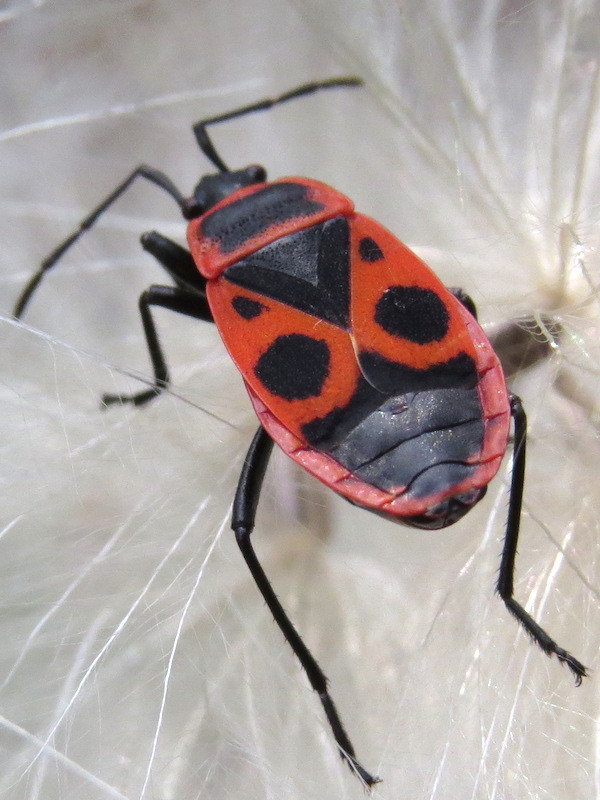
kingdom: Animalia
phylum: Arthropoda
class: Insecta
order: Hemiptera
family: Pyrrhocoridae
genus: Pyrrhocoris
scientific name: Pyrrhocoris apterus
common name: Firebug
